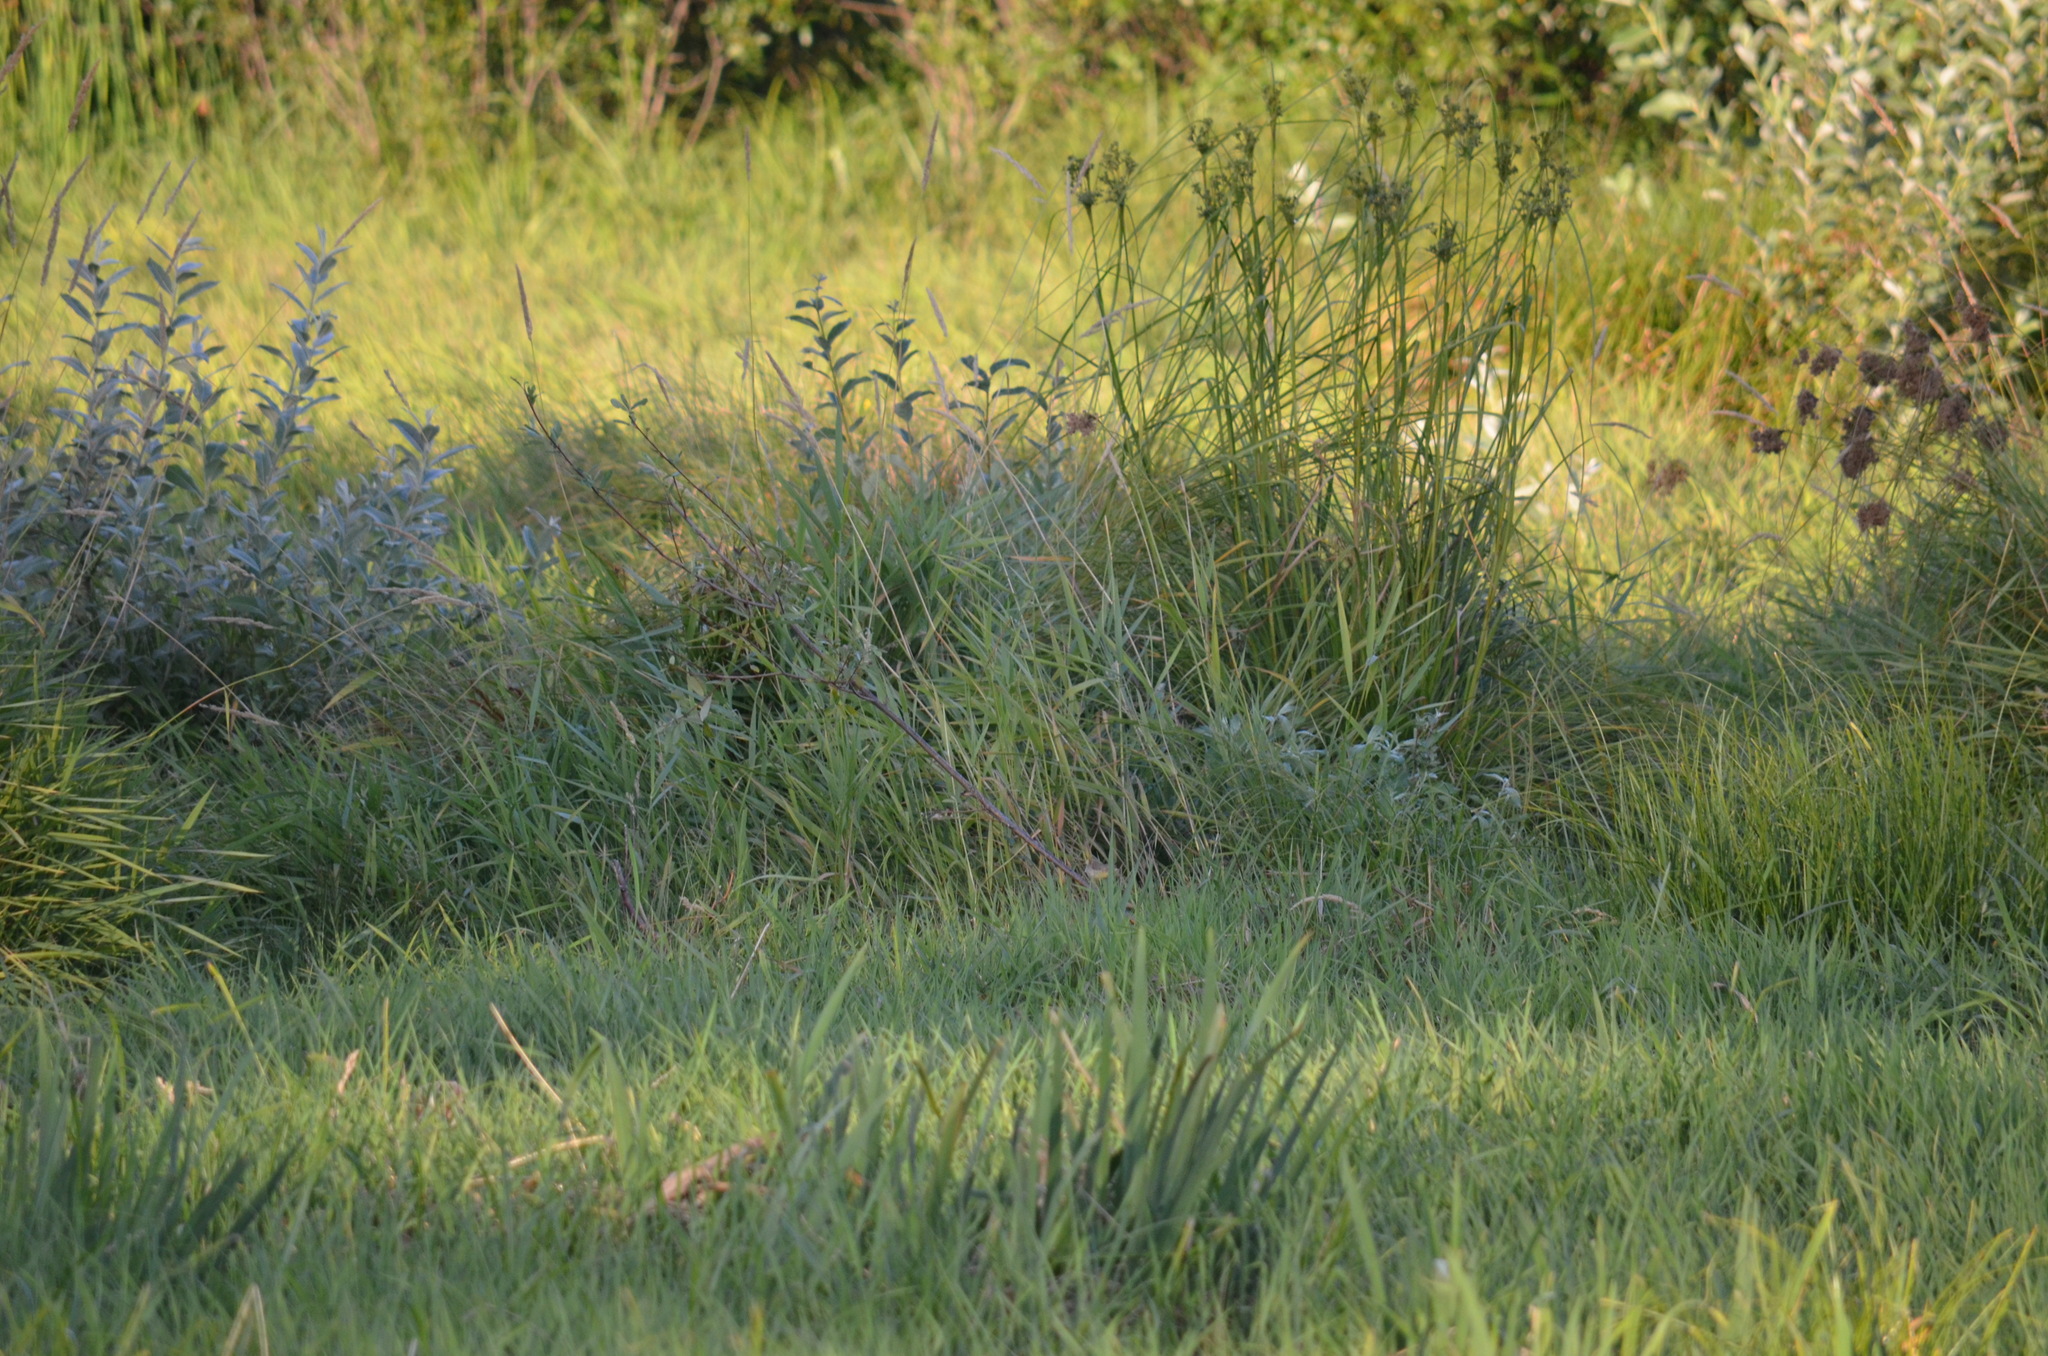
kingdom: Animalia
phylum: Chordata
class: Aves
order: Passeriformes
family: Parulidae
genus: Geothlypis
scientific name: Geothlypis trichas
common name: Common yellowthroat
